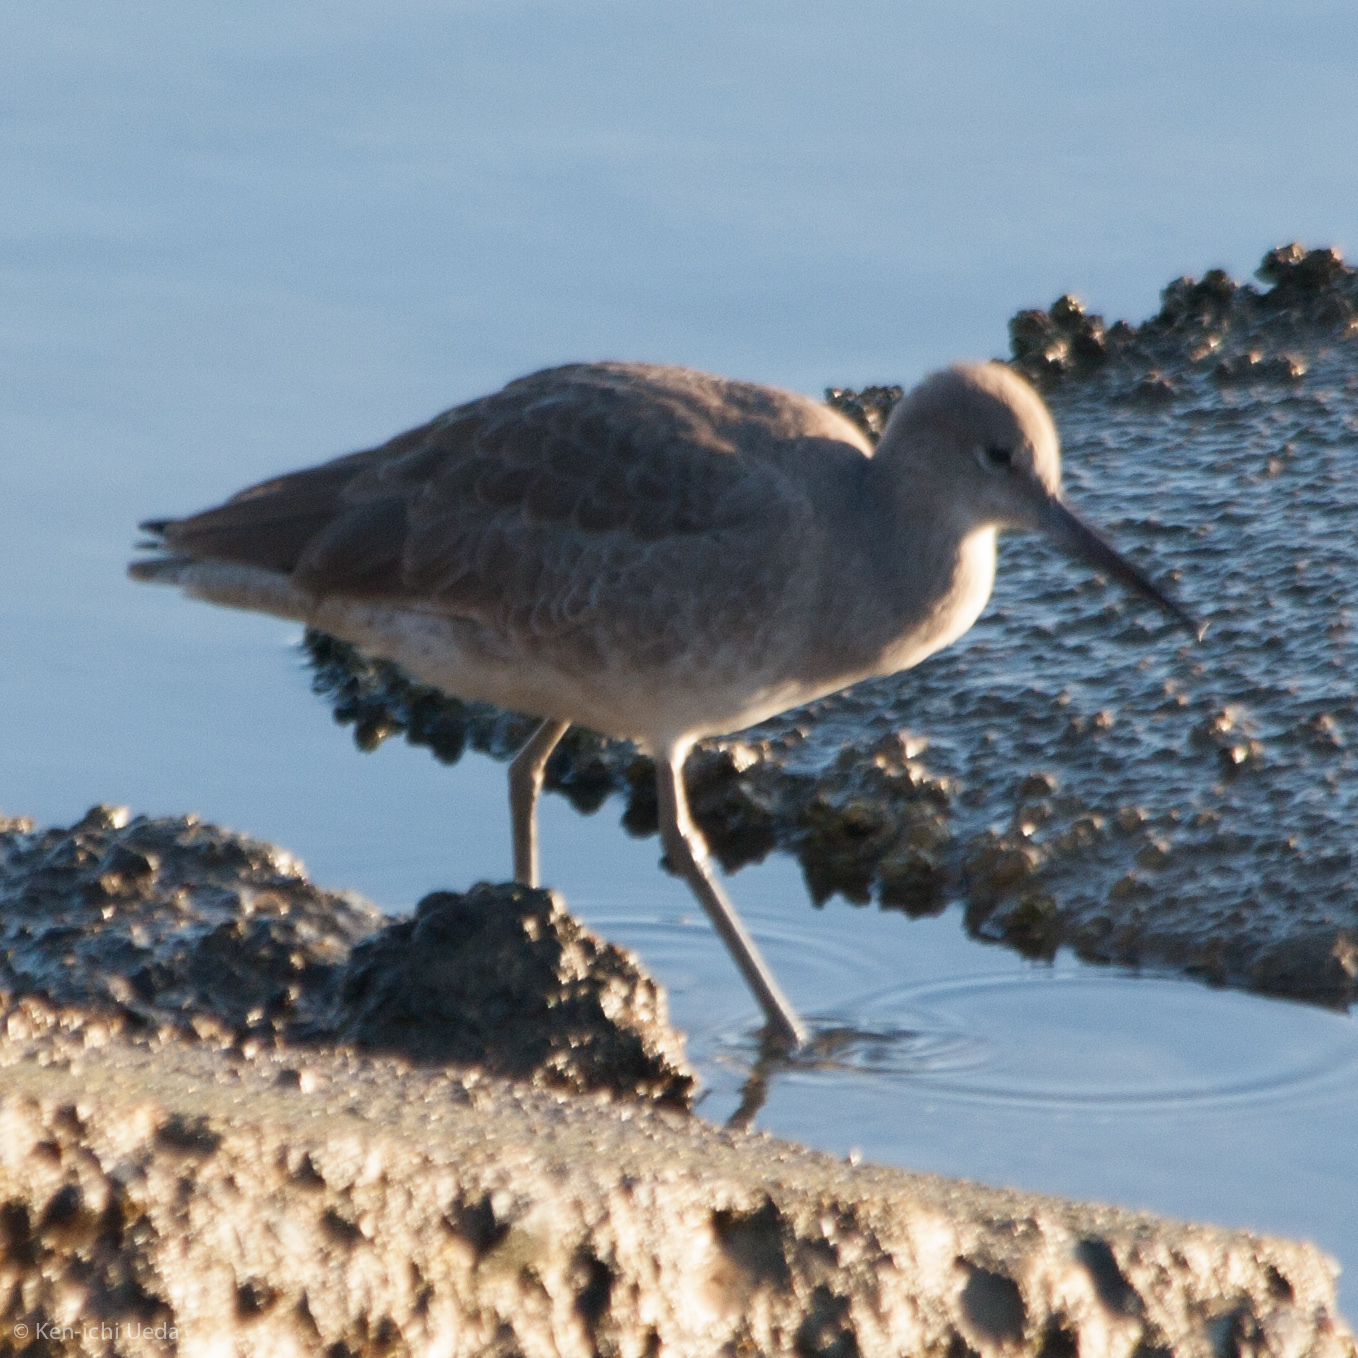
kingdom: Animalia
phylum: Chordata
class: Aves
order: Charadriiformes
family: Scolopacidae
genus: Tringa
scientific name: Tringa semipalmata
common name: Willet
